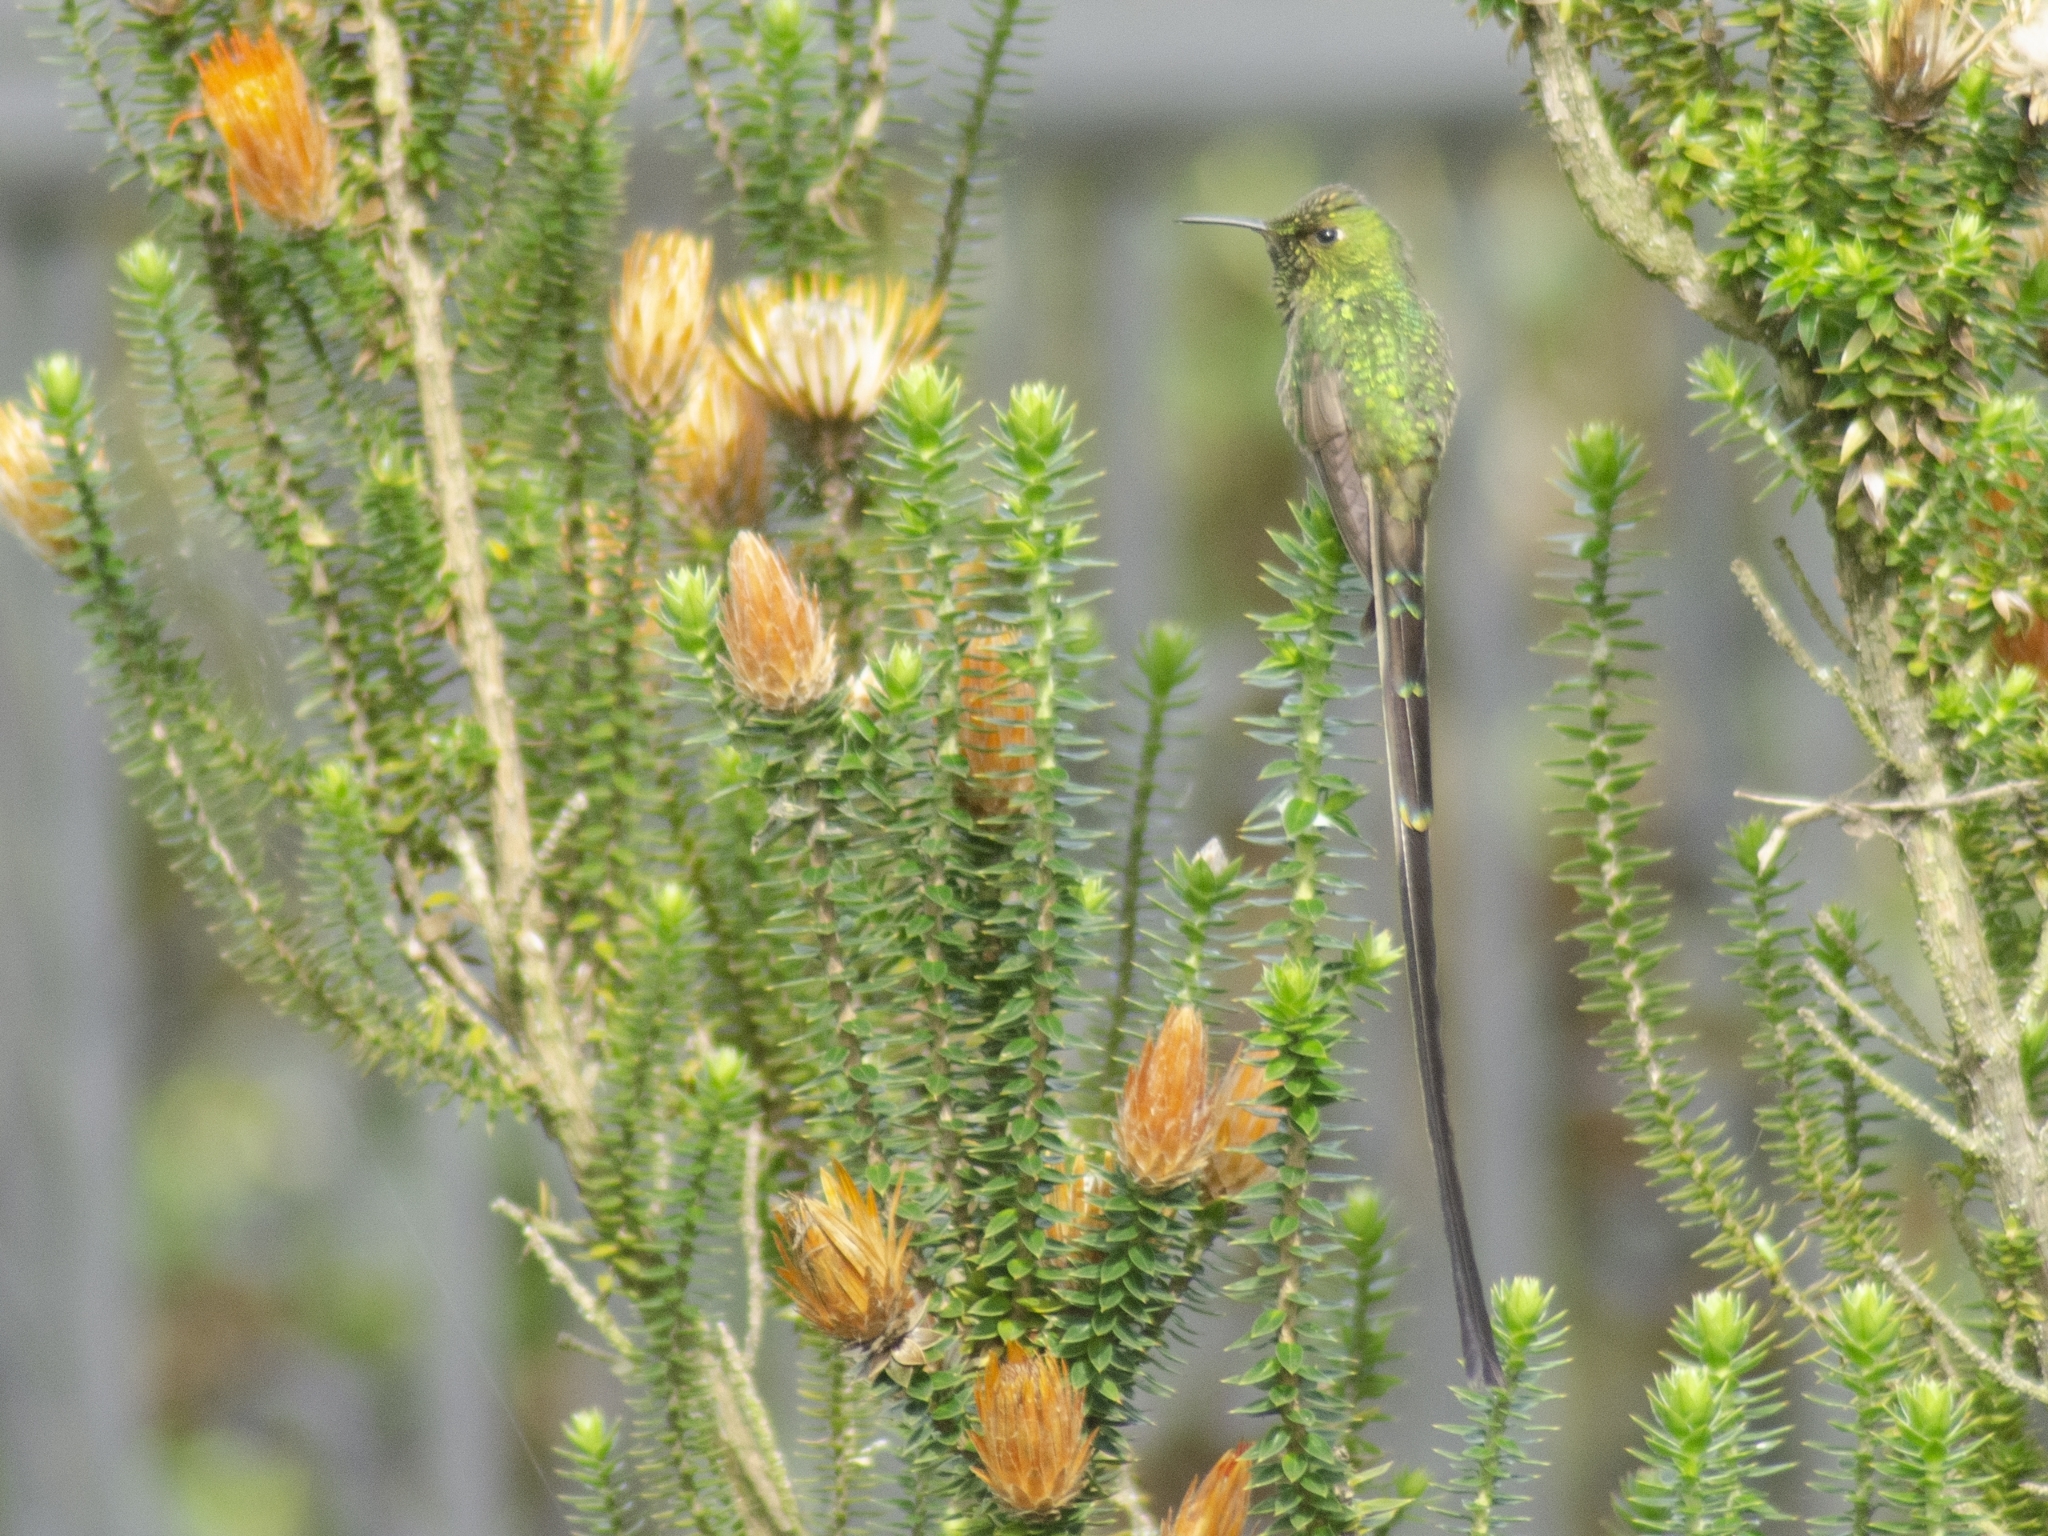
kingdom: Animalia
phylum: Chordata
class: Aves
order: Apodiformes
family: Trochilidae
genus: Lesbia
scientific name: Lesbia victoriae
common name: Black-tailed trainbearer
